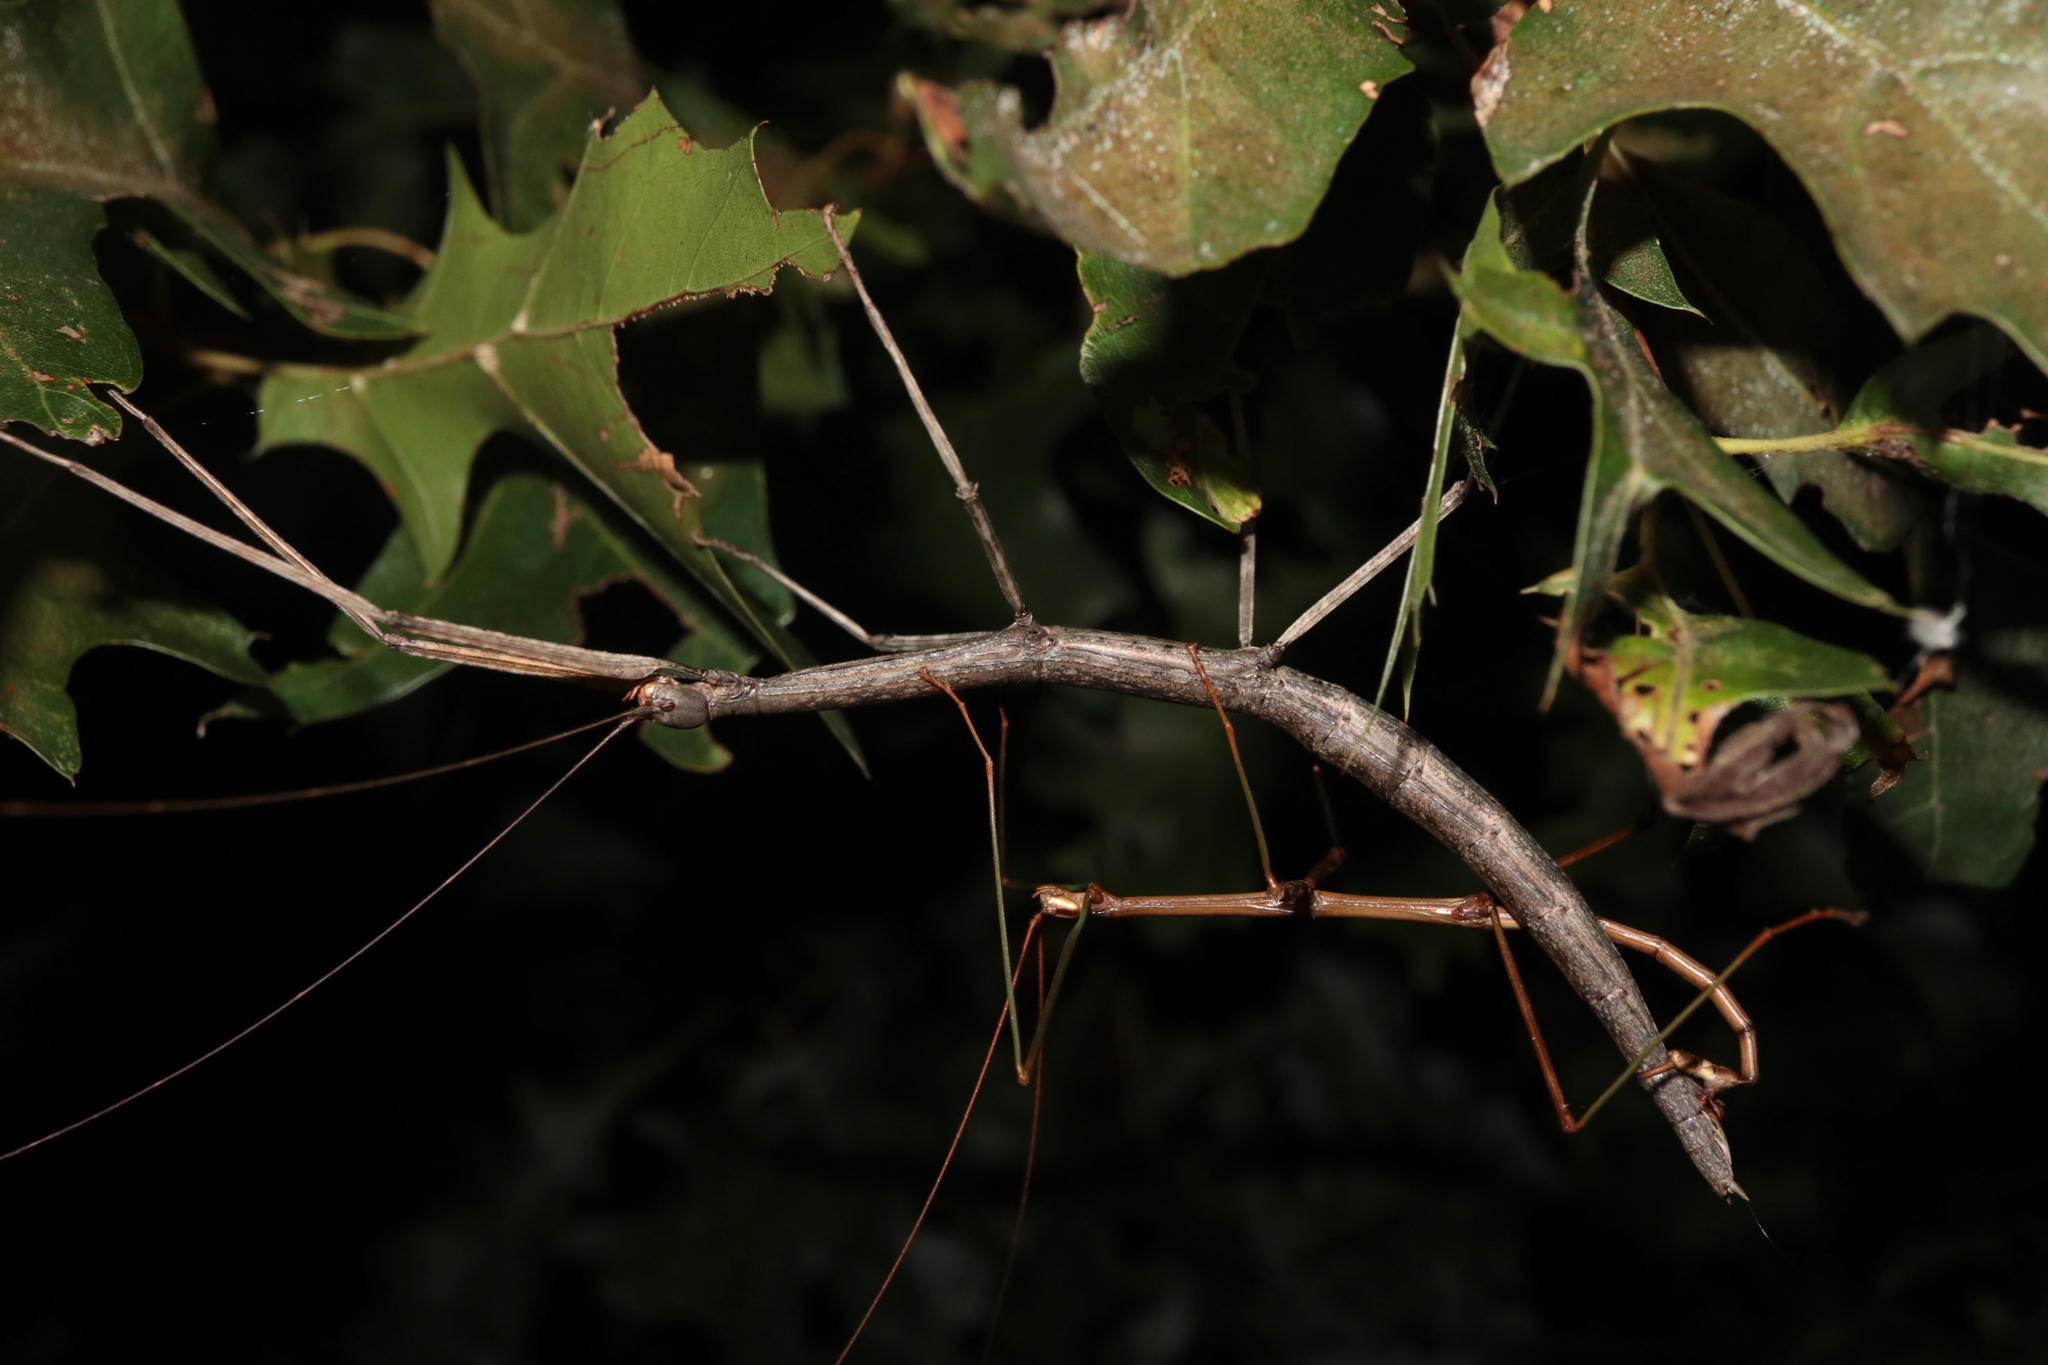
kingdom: Animalia
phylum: Arthropoda
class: Insecta
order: Phasmida
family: Diapheromeridae
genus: Diapheromera
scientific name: Diapheromera femorata
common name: Common american walkingstick
